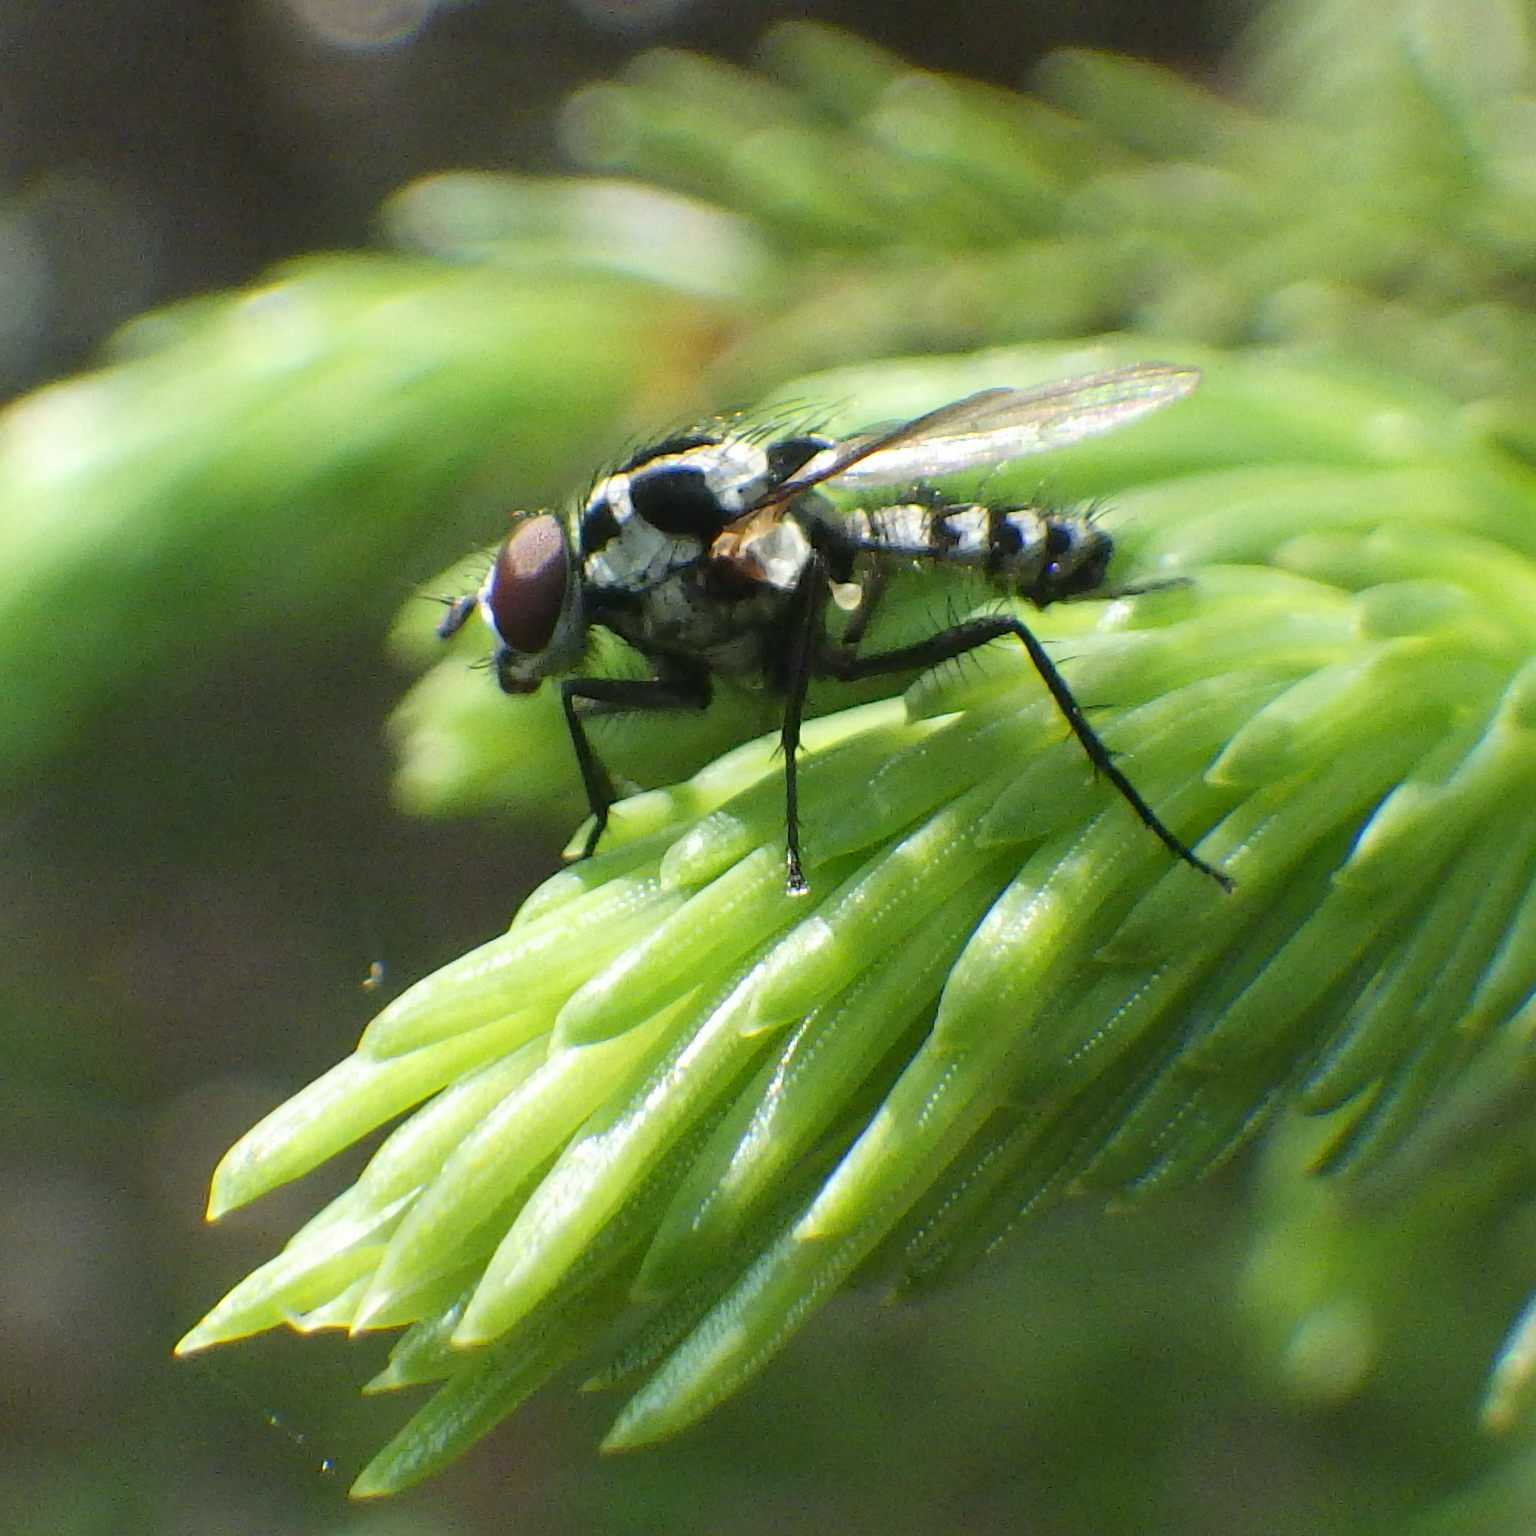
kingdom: Animalia
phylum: Arthropoda
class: Insecta
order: Diptera
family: Anthomyiidae
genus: Anthomyia
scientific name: Anthomyia procellaris
